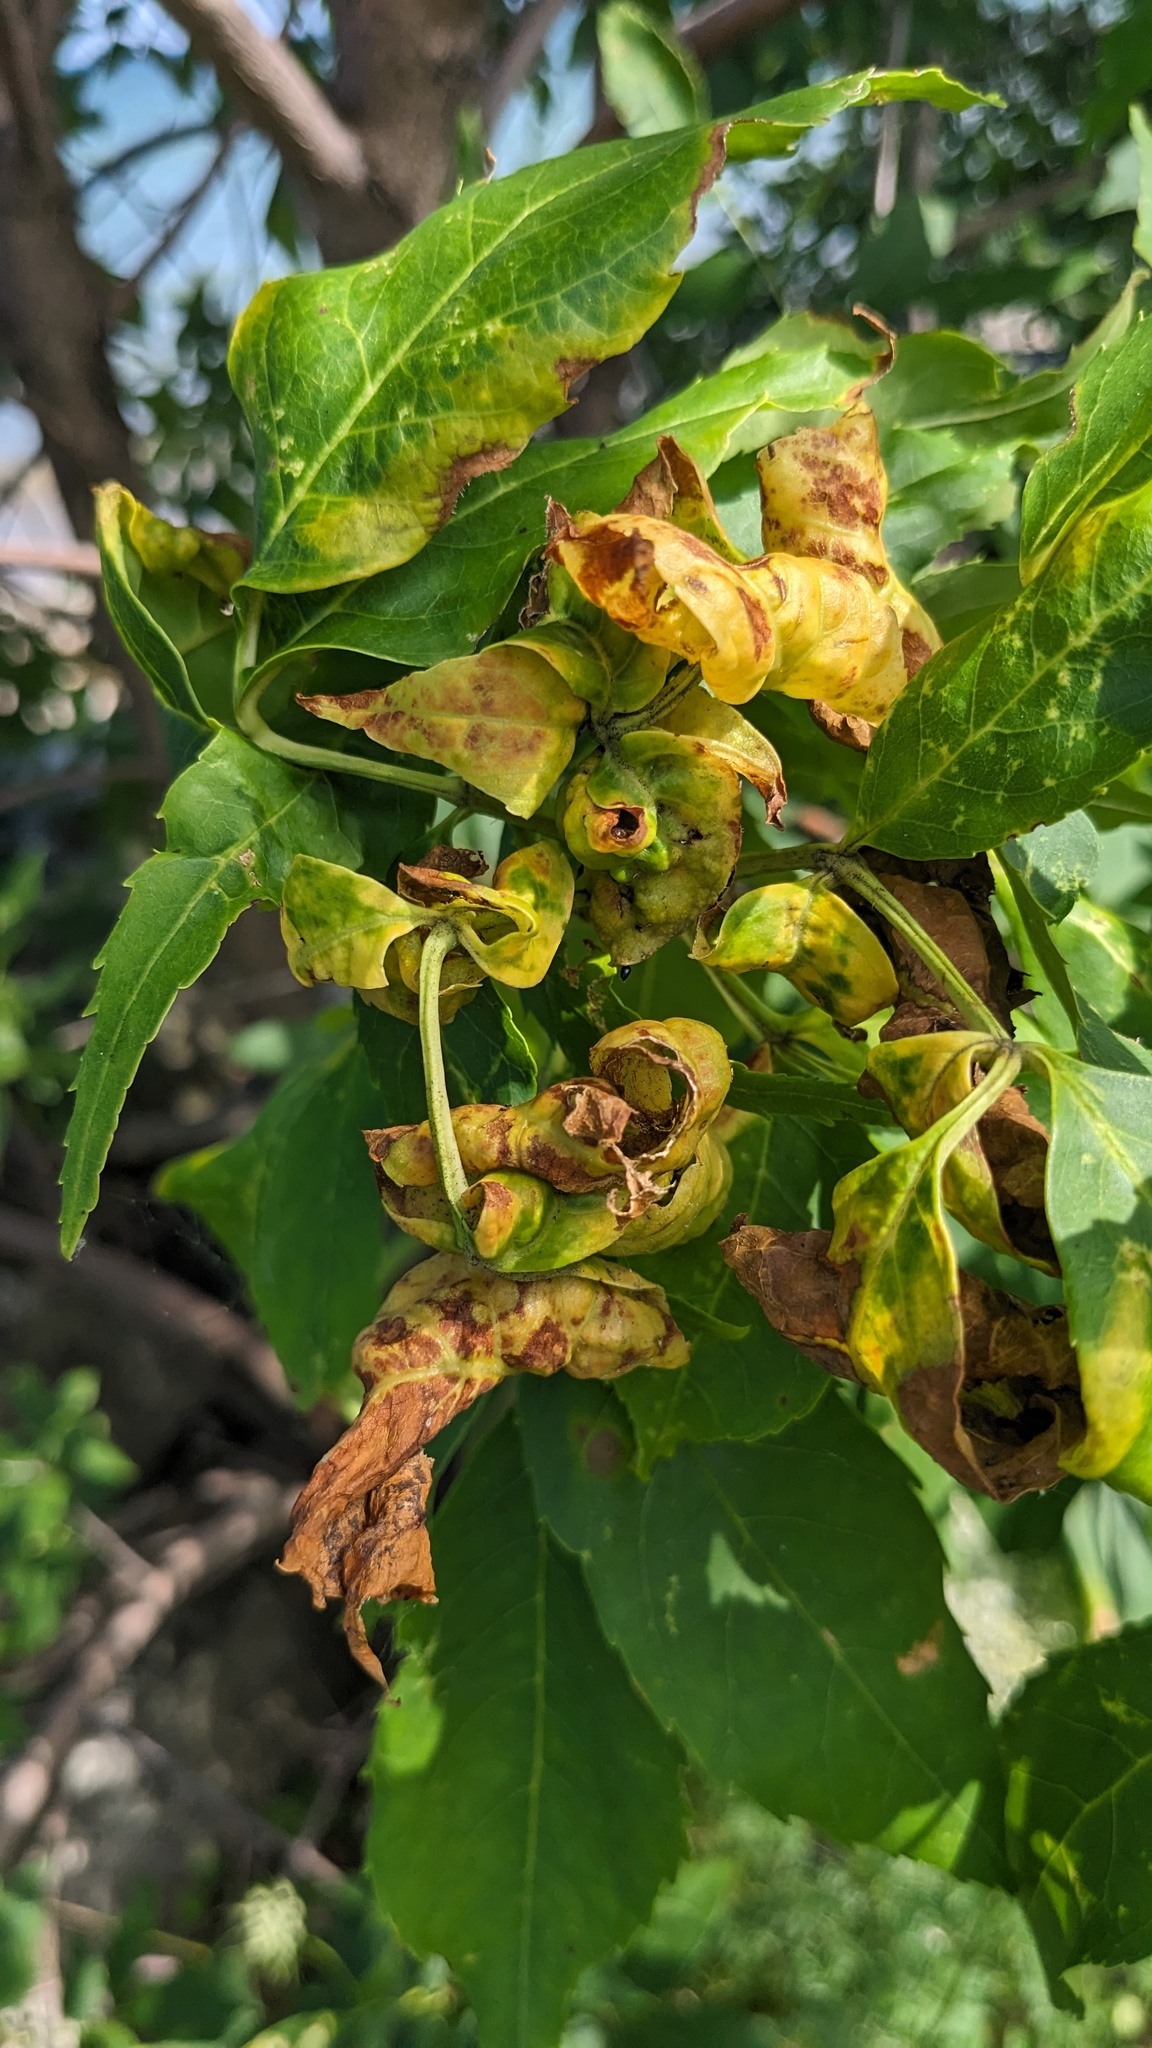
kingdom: Animalia
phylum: Arthropoda
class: Insecta
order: Hemiptera
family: Aphididae
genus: Prociphilus
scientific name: Prociphilus fraxinifolii
